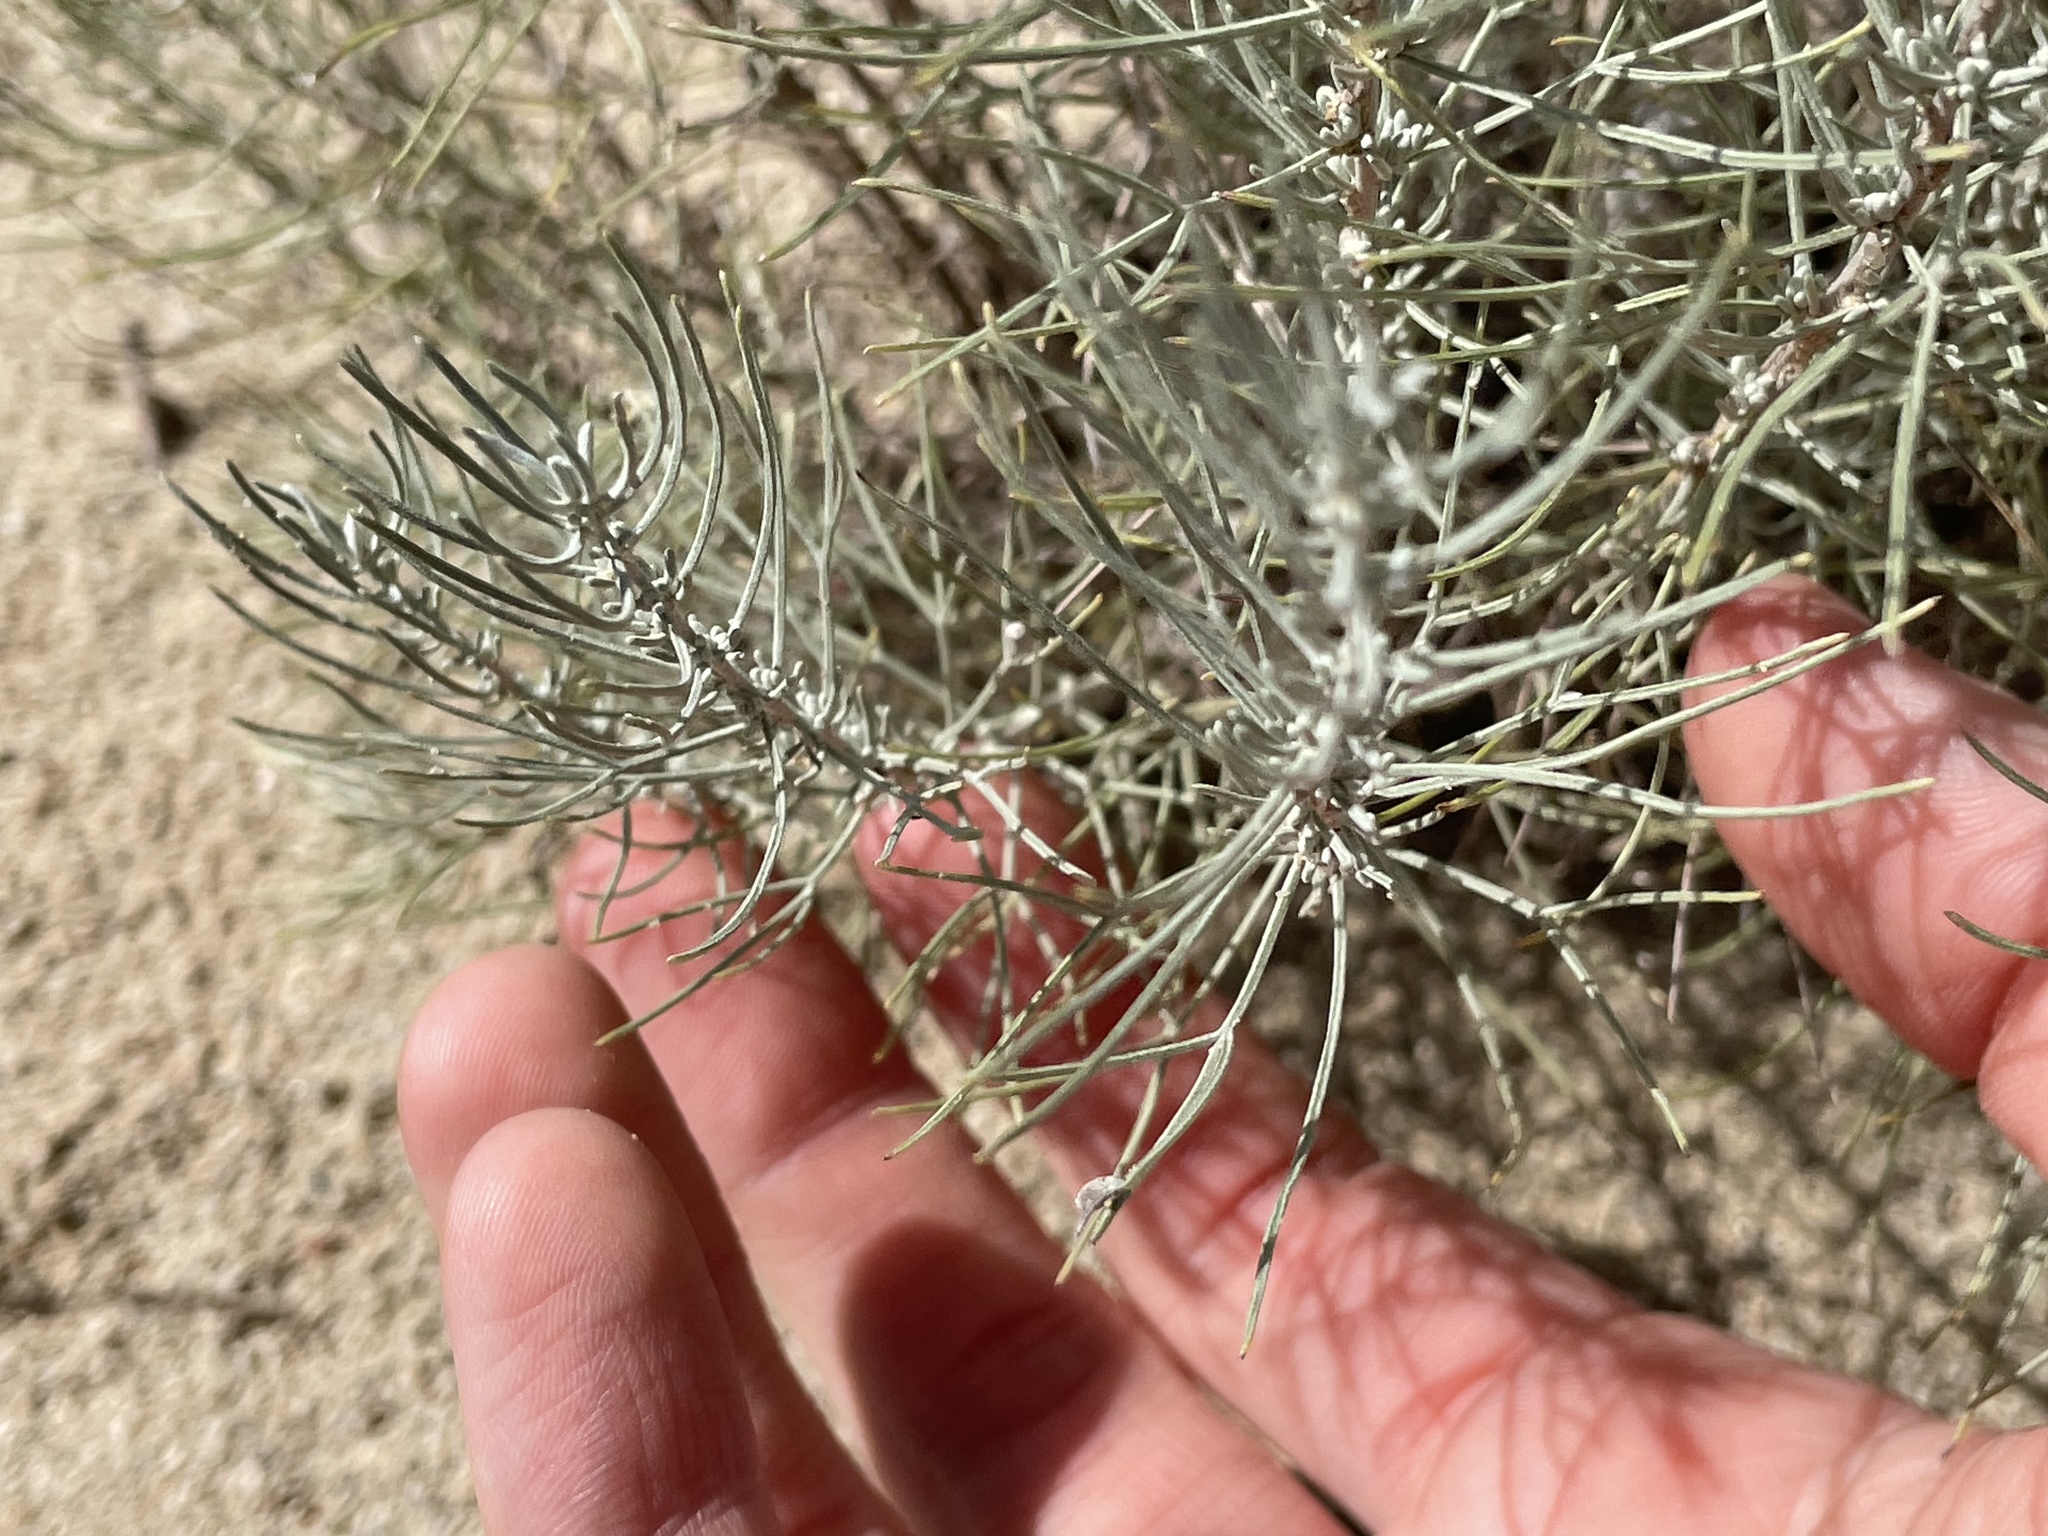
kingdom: Plantae
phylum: Tracheophyta
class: Magnoliopsida
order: Asterales
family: Asteraceae
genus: Artemisia
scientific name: Artemisia filifolia
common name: Sand-sage
